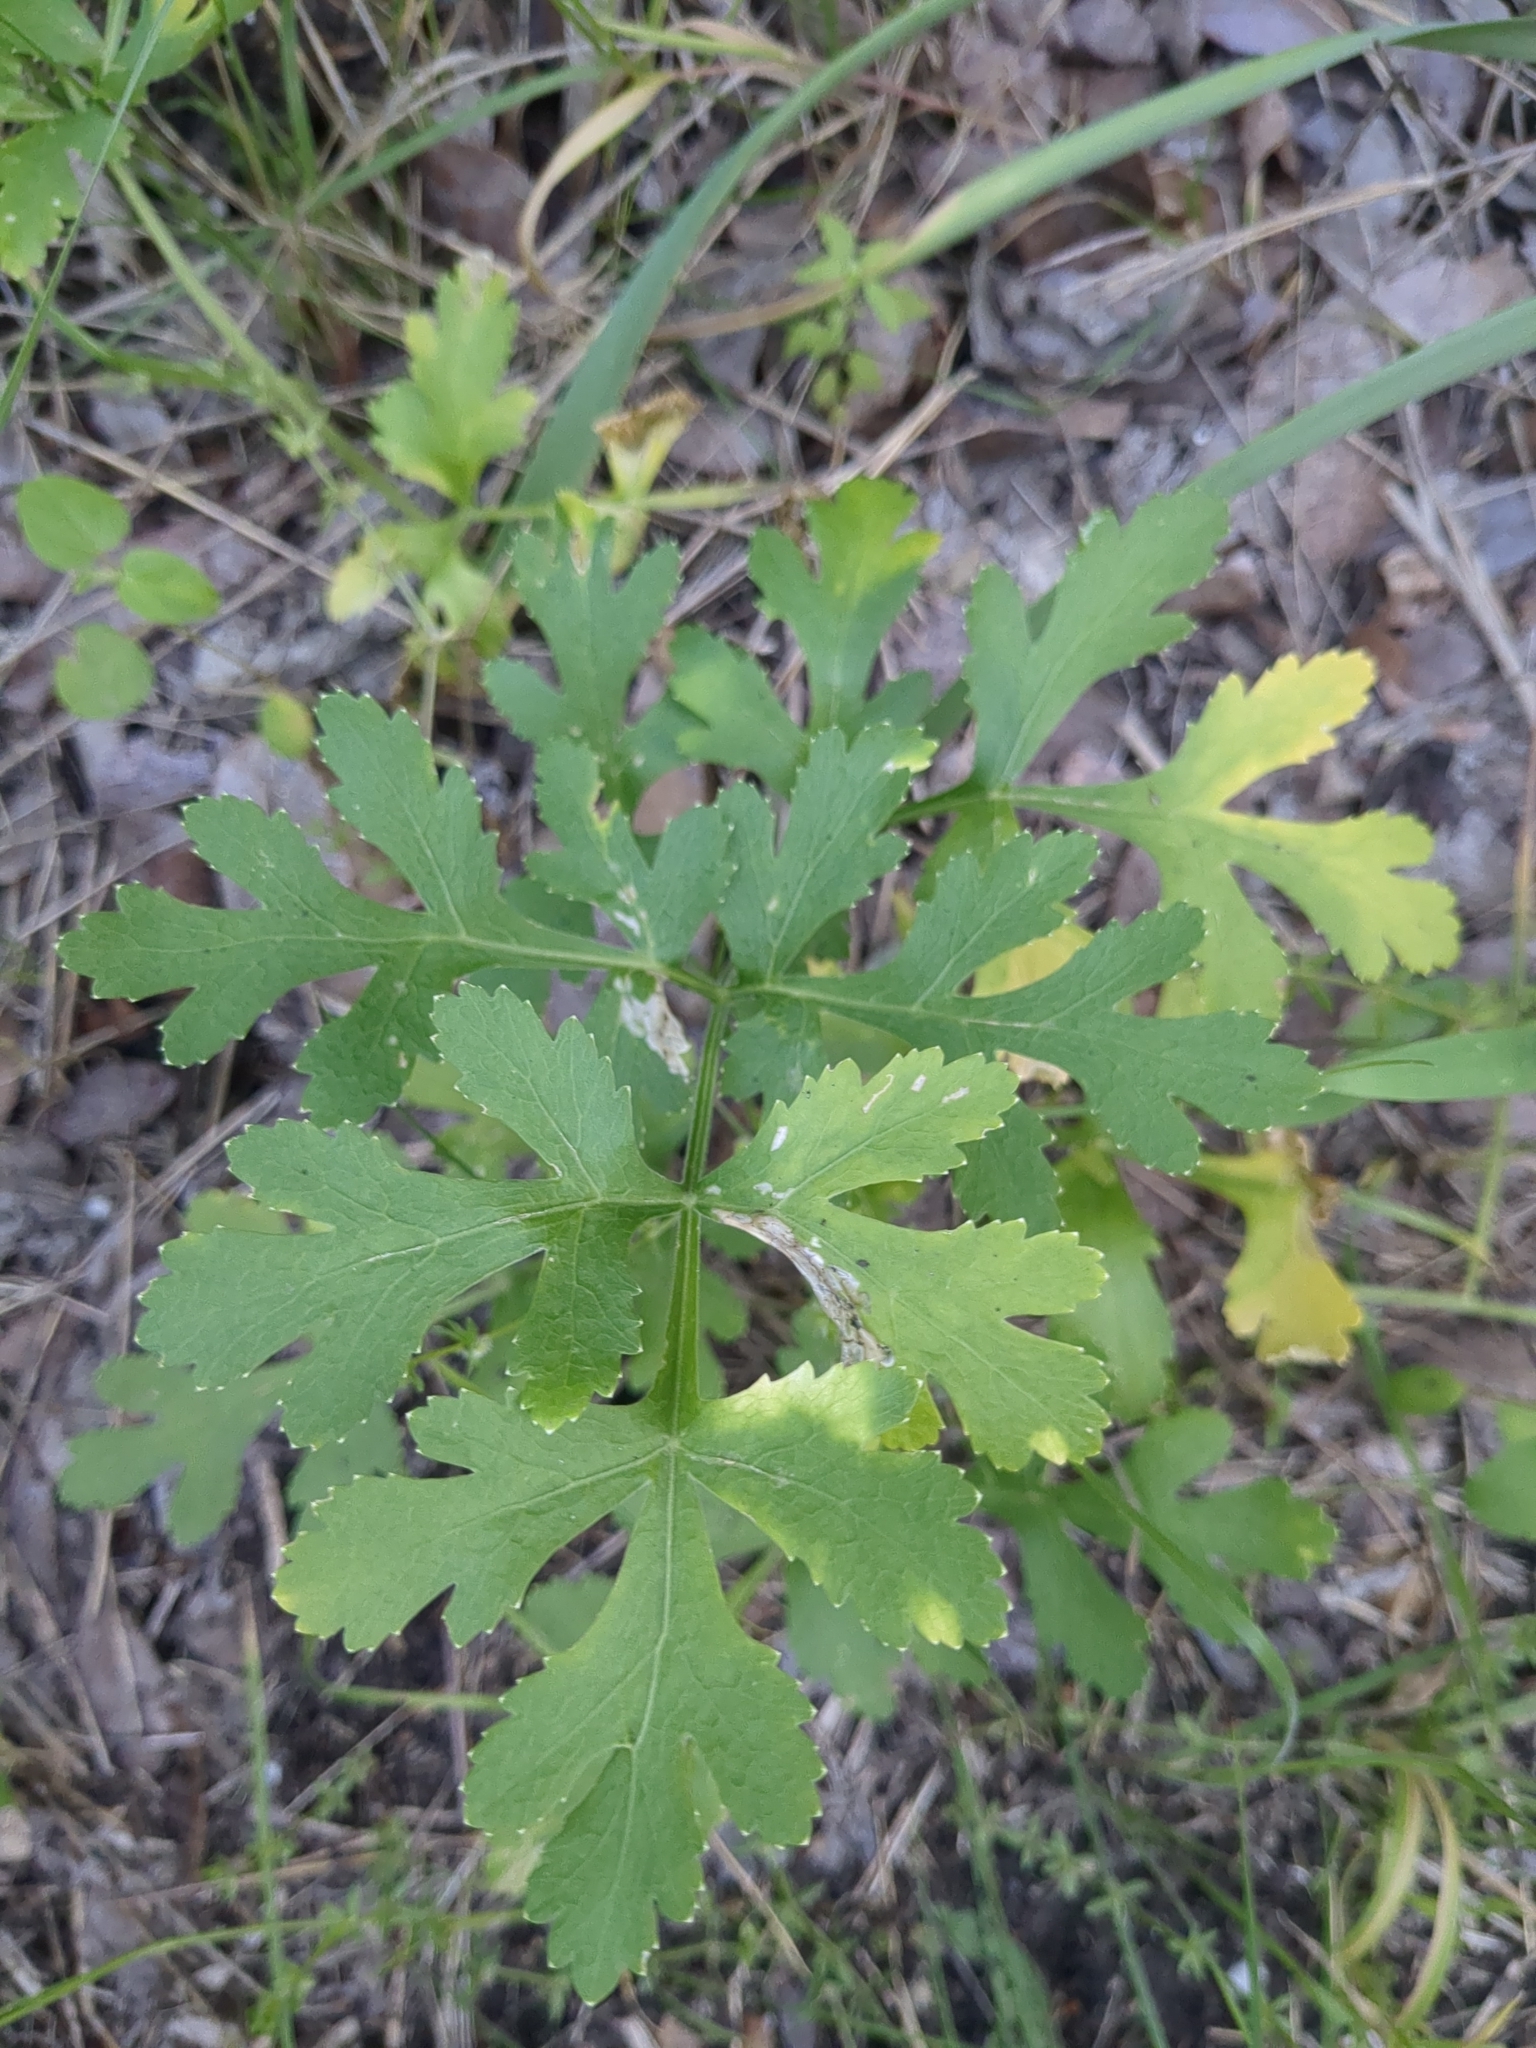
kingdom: Plantae
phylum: Tracheophyta
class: Magnoliopsida
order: Apiales
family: Apiaceae
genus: Polytaenia
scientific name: Polytaenia texana
